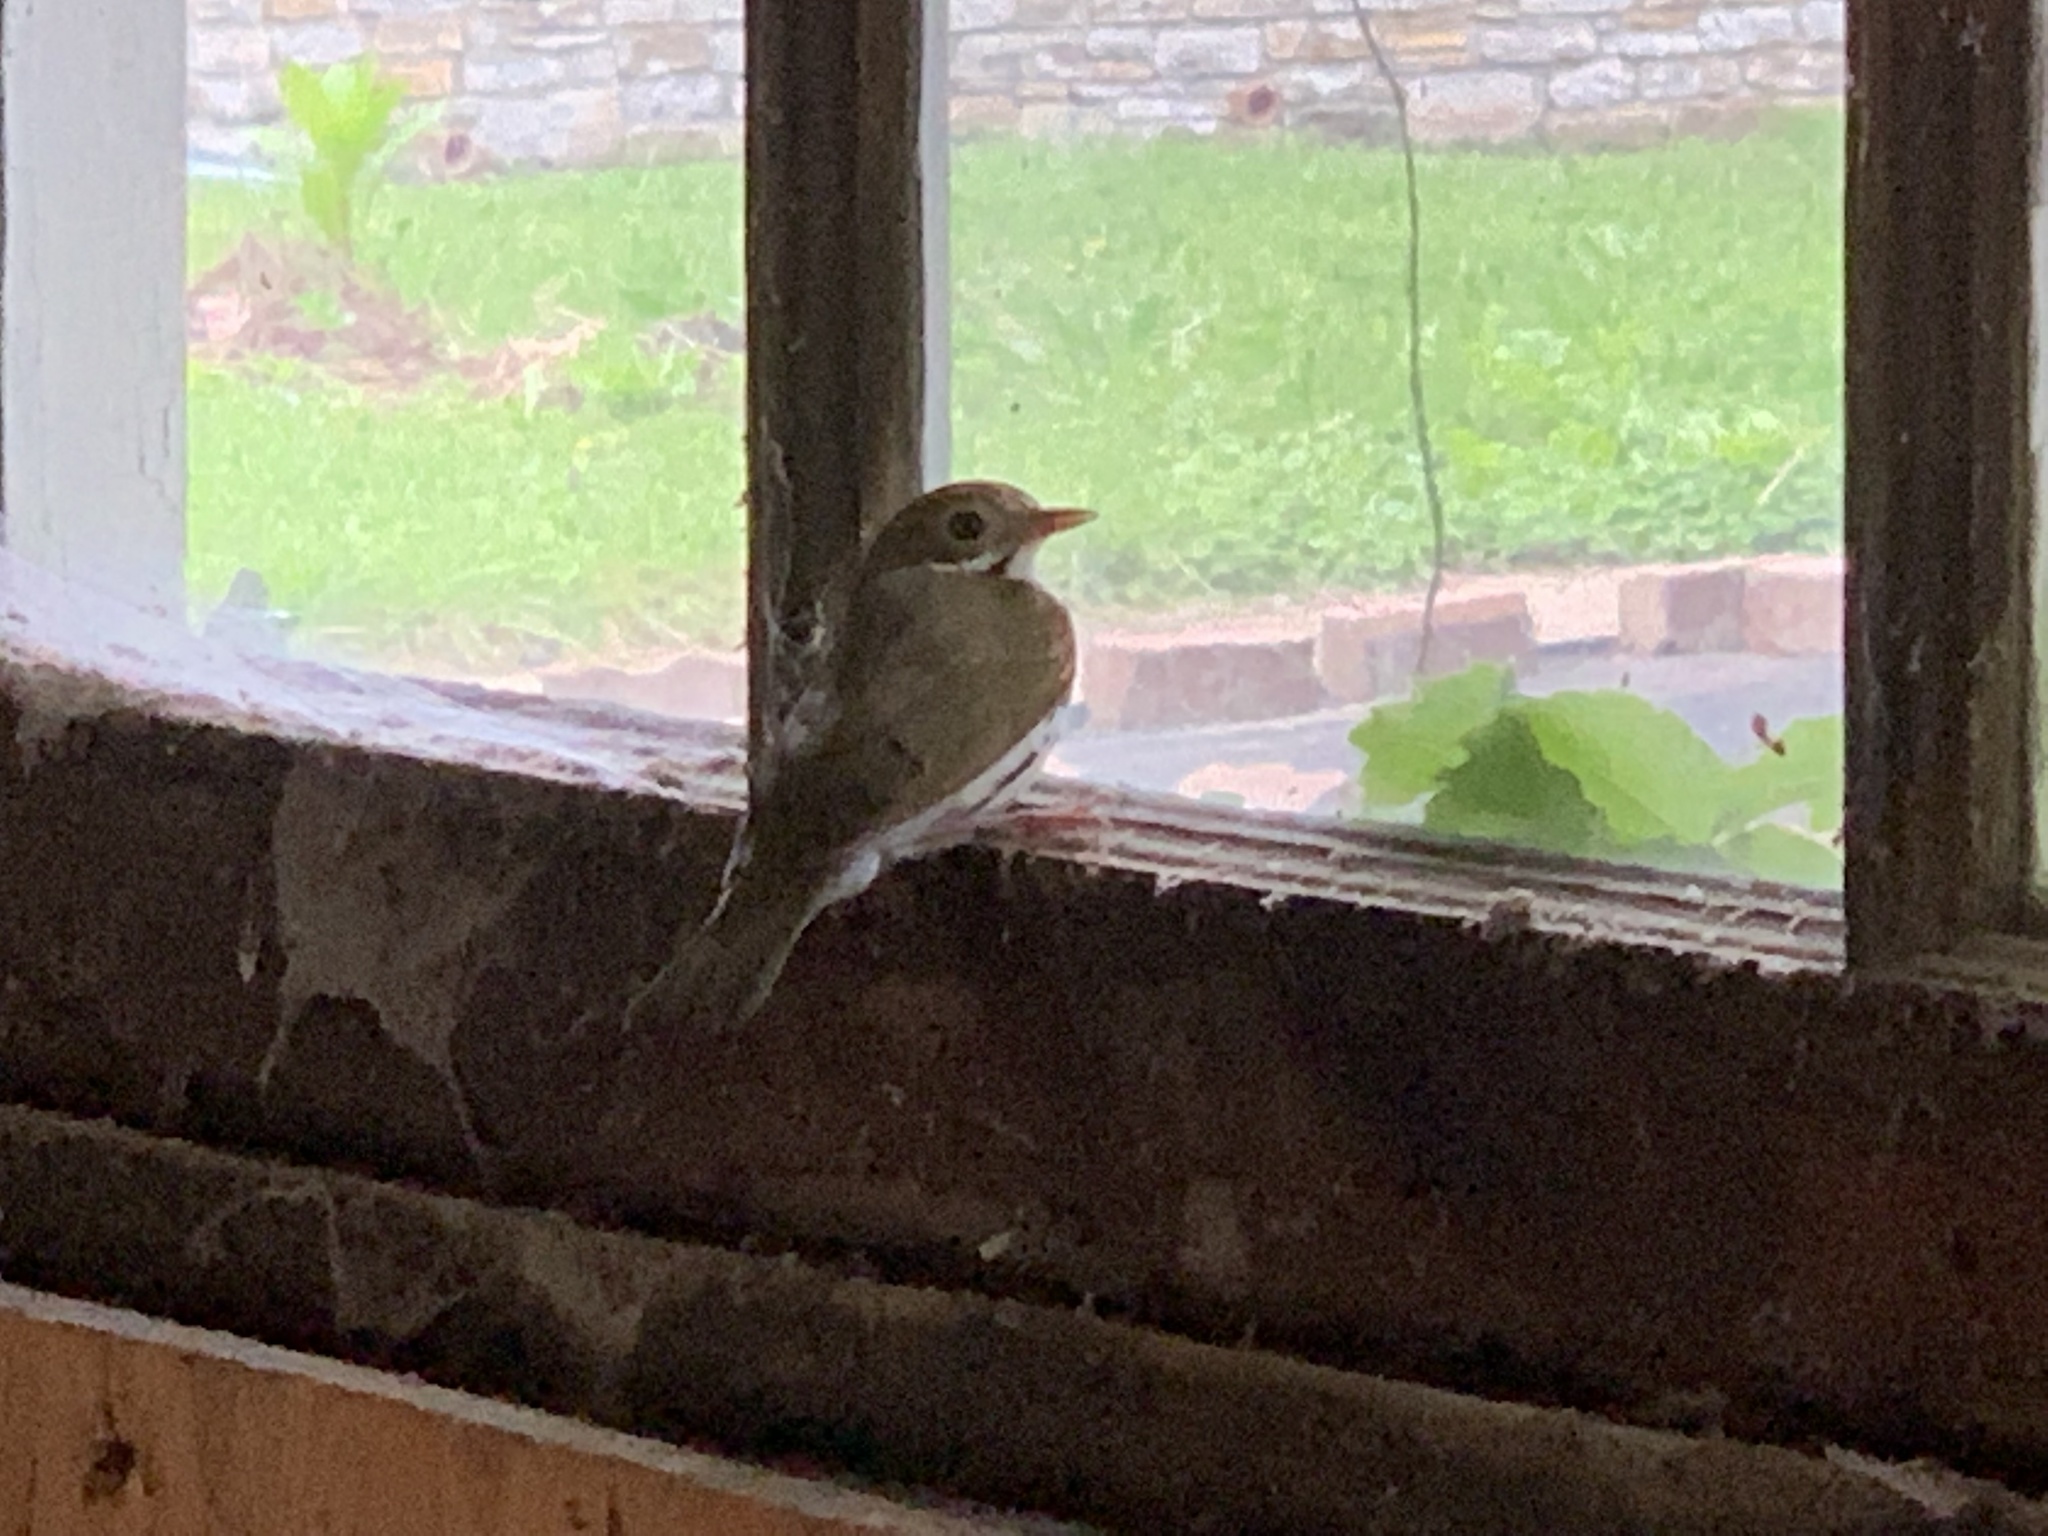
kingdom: Animalia
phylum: Chordata
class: Aves
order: Passeriformes
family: Parulidae
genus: Seiurus
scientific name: Seiurus aurocapilla
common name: Ovenbird
